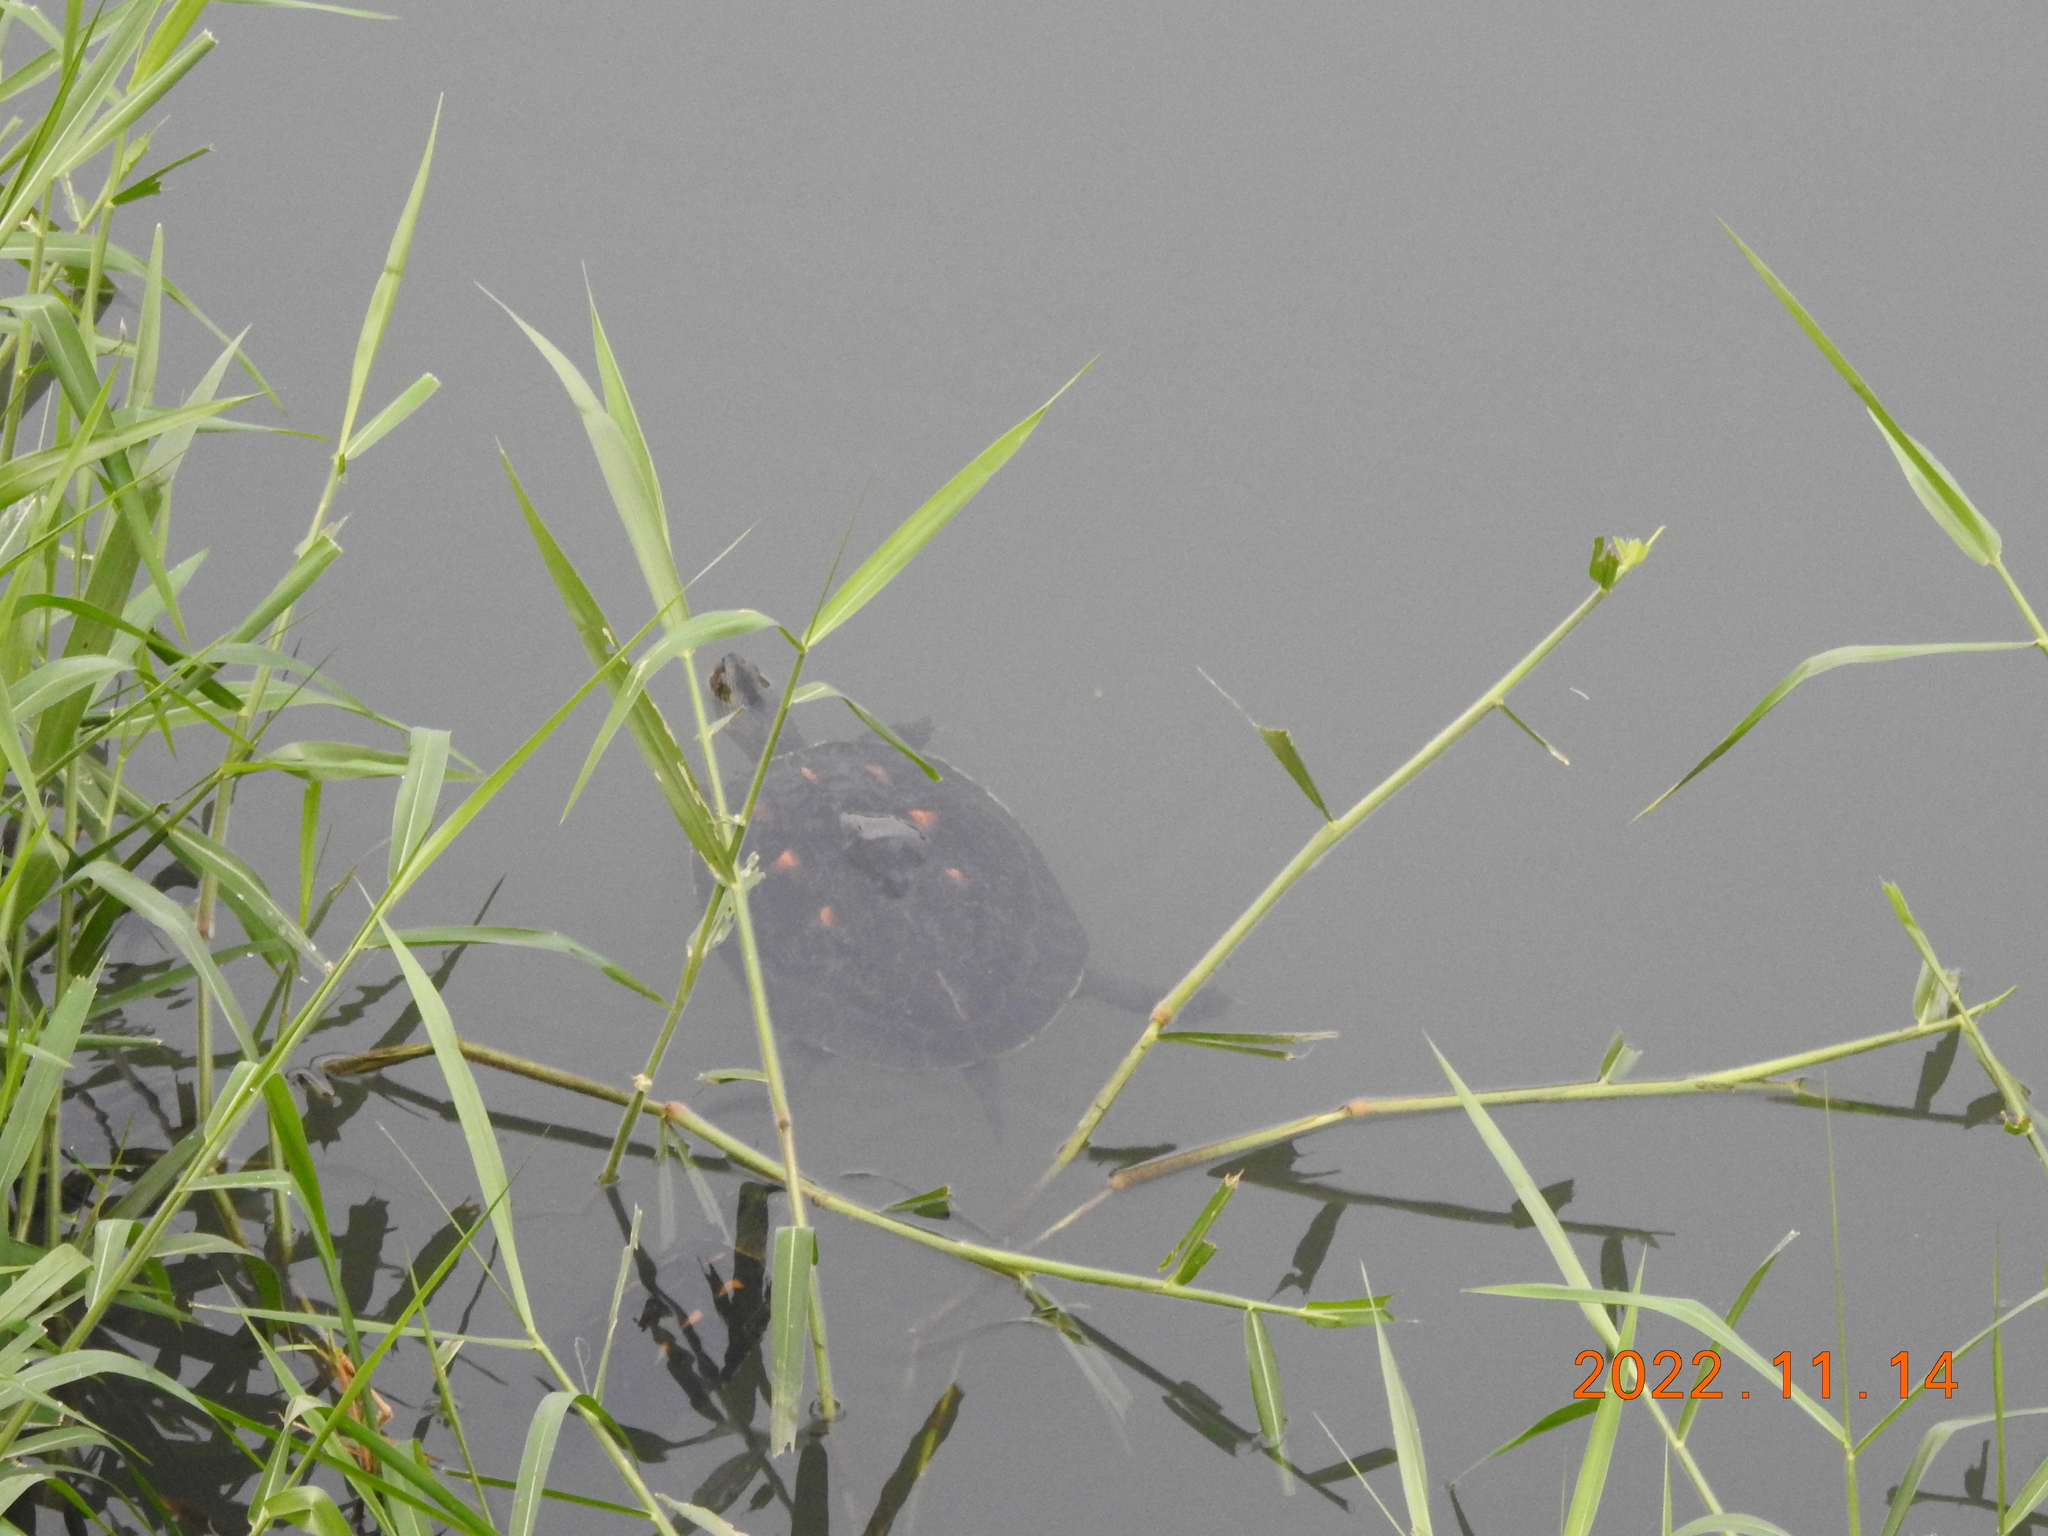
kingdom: Animalia
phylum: Chordata
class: Testudines
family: Geoemydidae
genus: Mauremys
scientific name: Mauremys sinensis
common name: Chinese stripe-necked turtle
